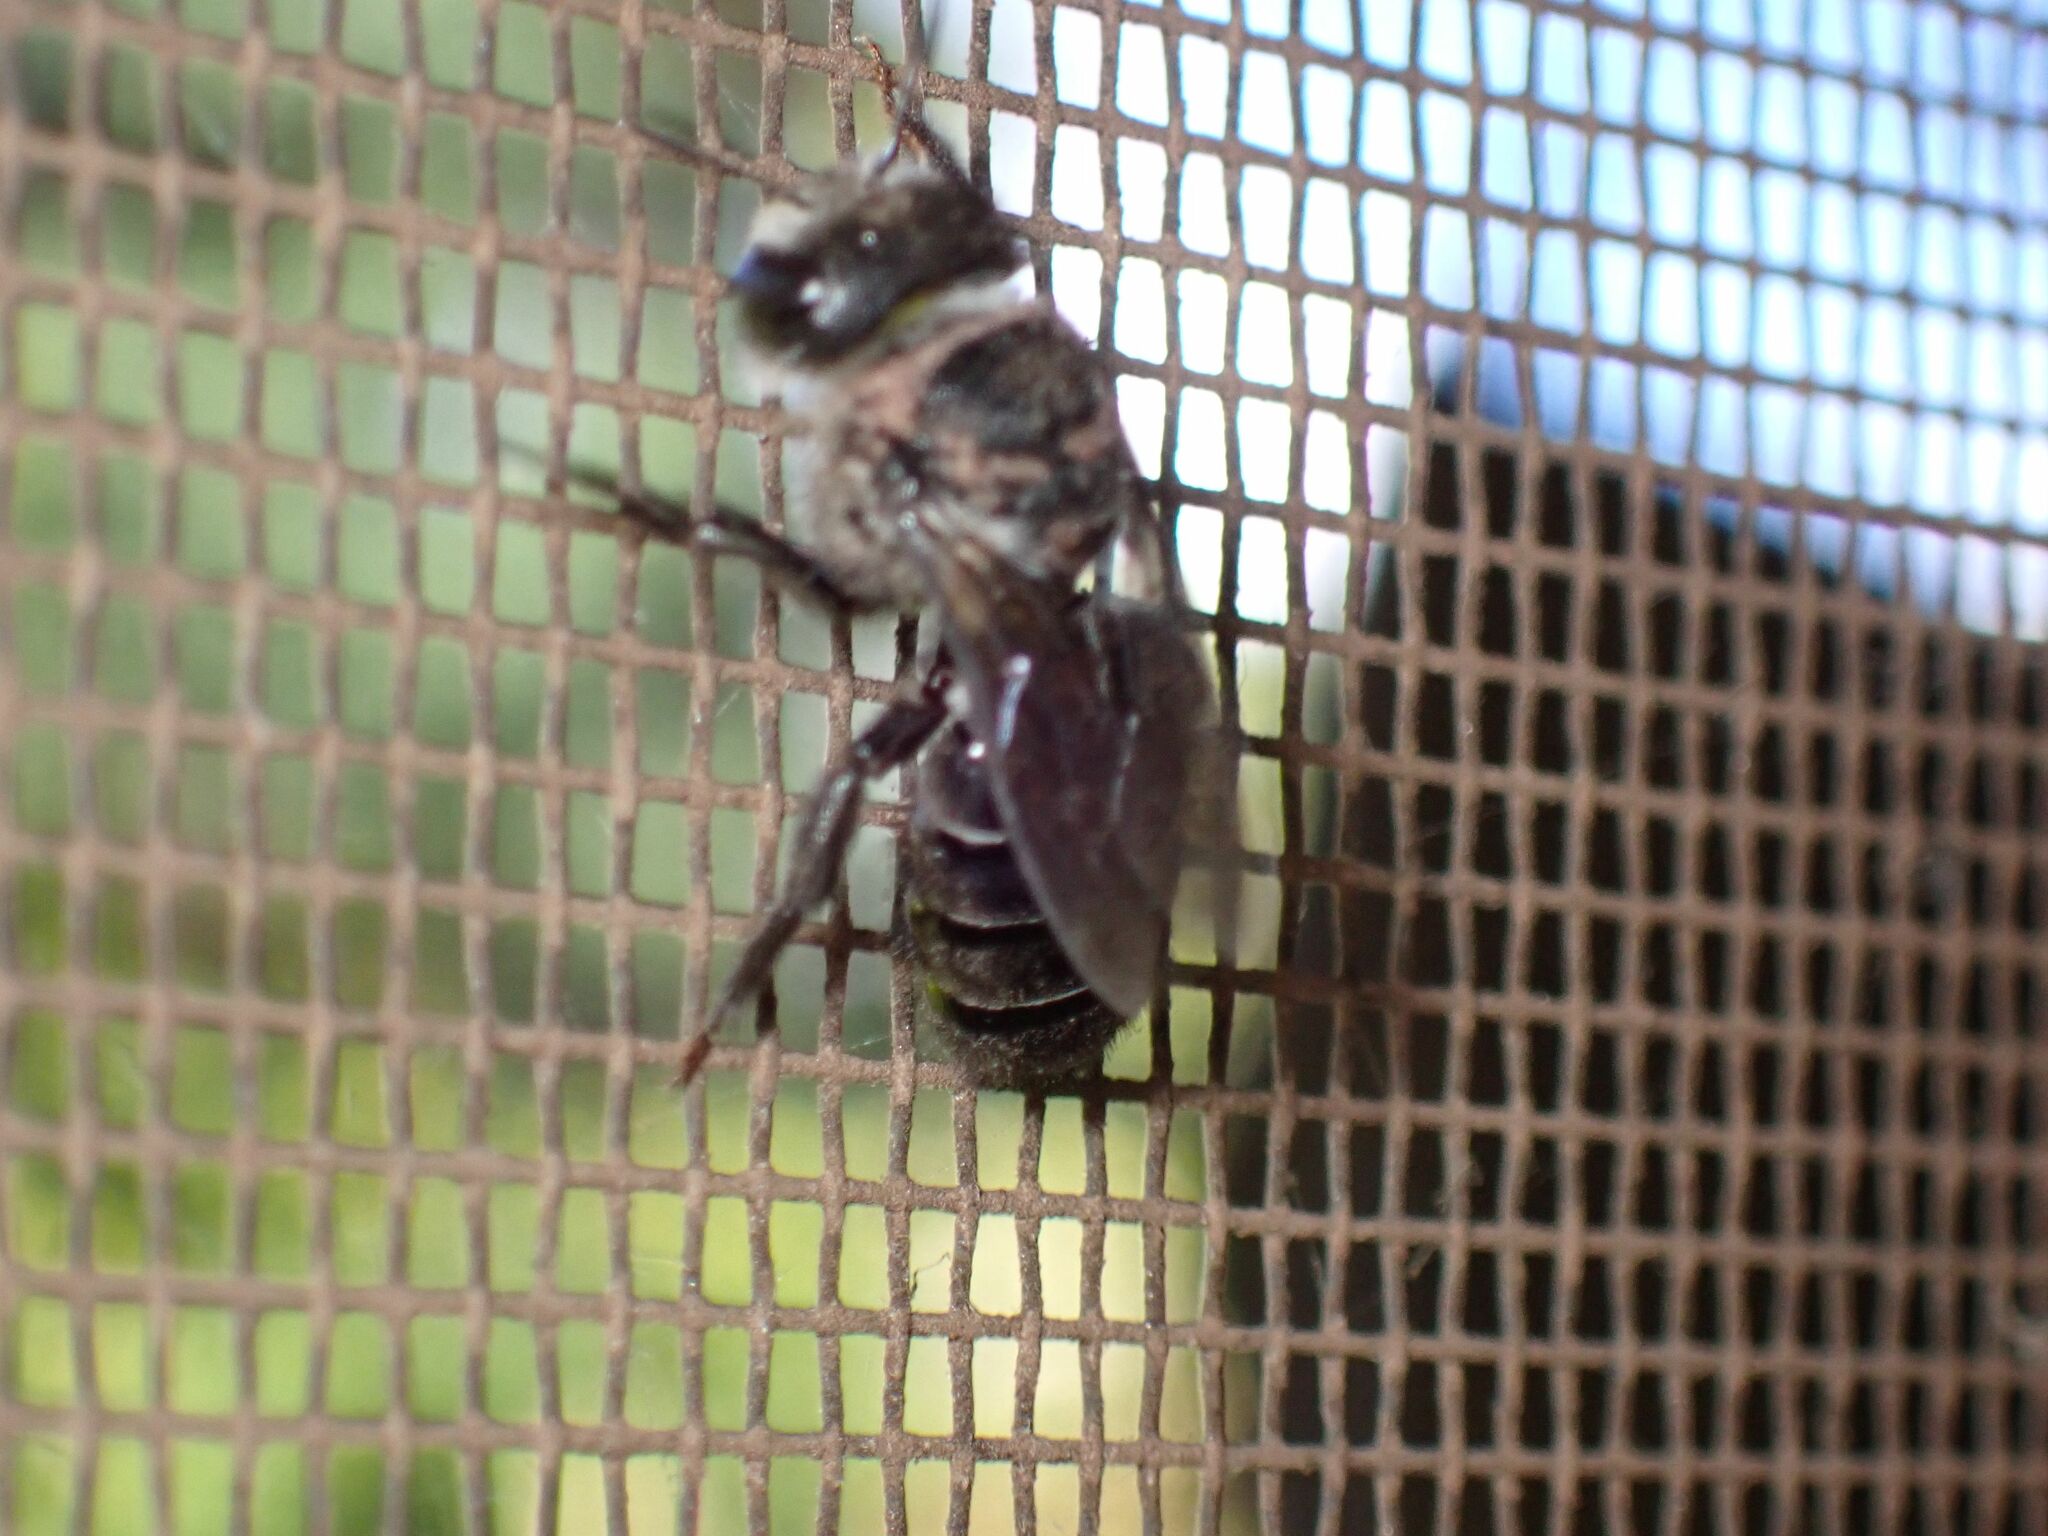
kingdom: Animalia
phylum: Arthropoda
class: Insecta
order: Hymenoptera
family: Megachilidae
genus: Lithurgus
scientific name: Lithurgus scabrosus
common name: Wood-nesting bee
